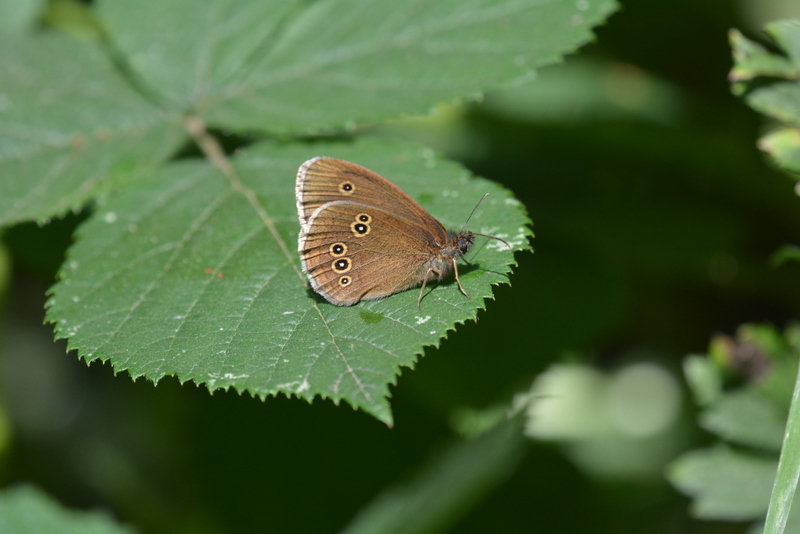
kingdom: Animalia
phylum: Arthropoda
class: Insecta
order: Lepidoptera
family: Nymphalidae
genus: Aphantopus
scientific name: Aphantopus hyperantus
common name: Ringlet
